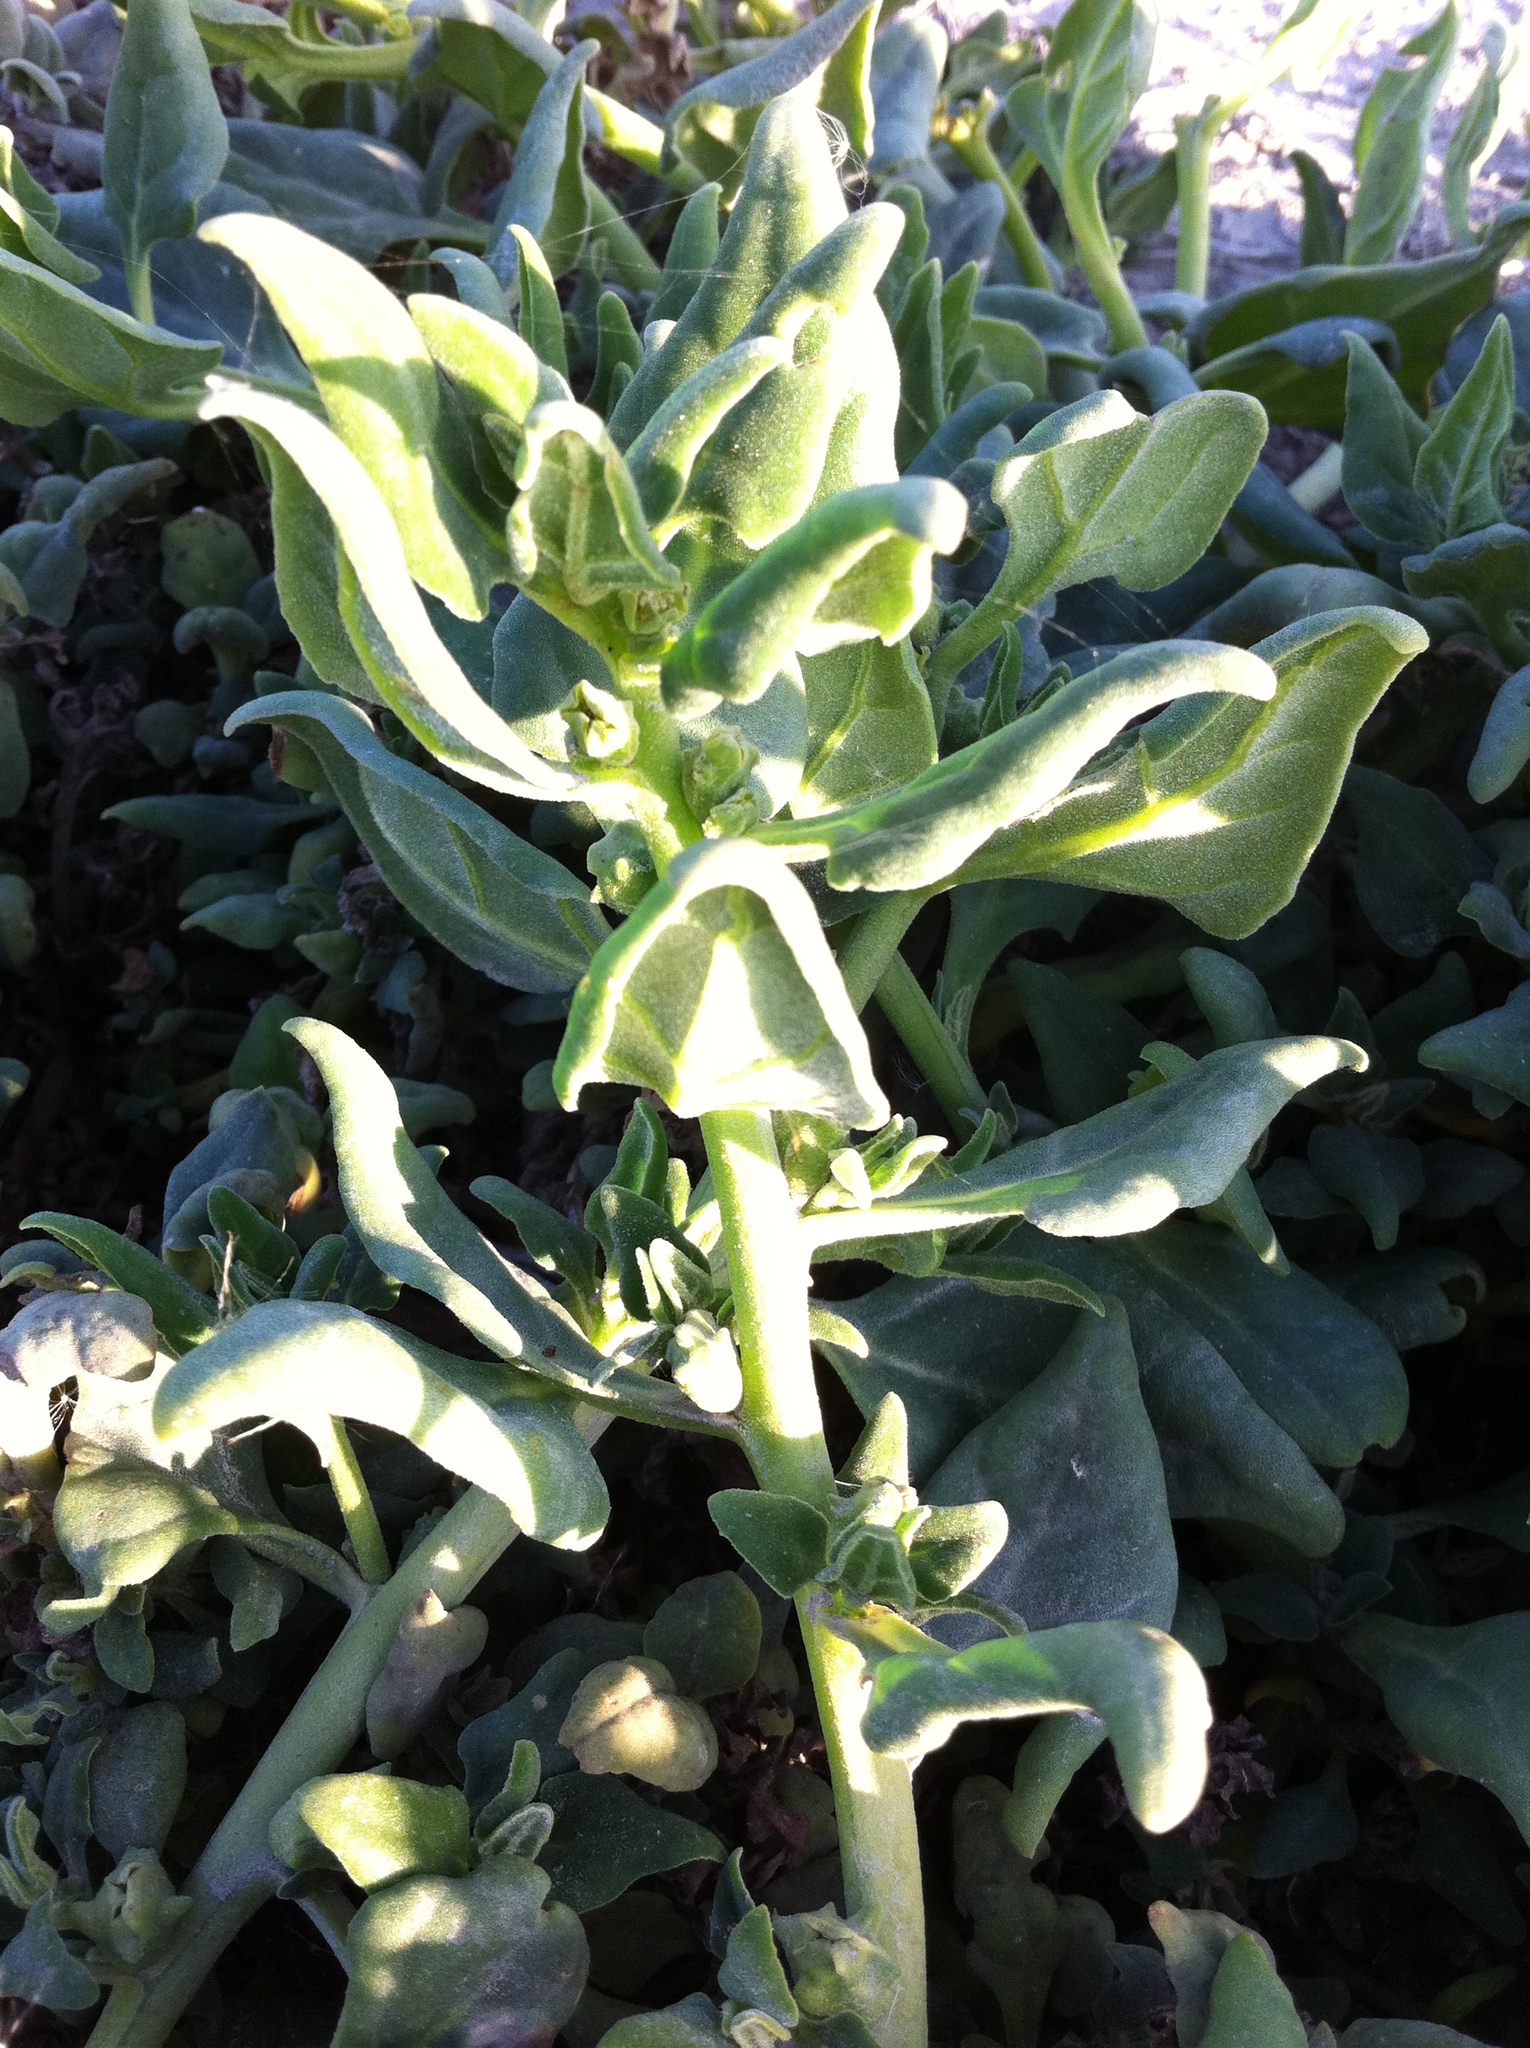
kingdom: Plantae
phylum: Tracheophyta
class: Magnoliopsida
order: Caryophyllales
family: Aizoaceae
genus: Tetragonia
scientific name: Tetragonia tetragonoides
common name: New zealand-spinach
